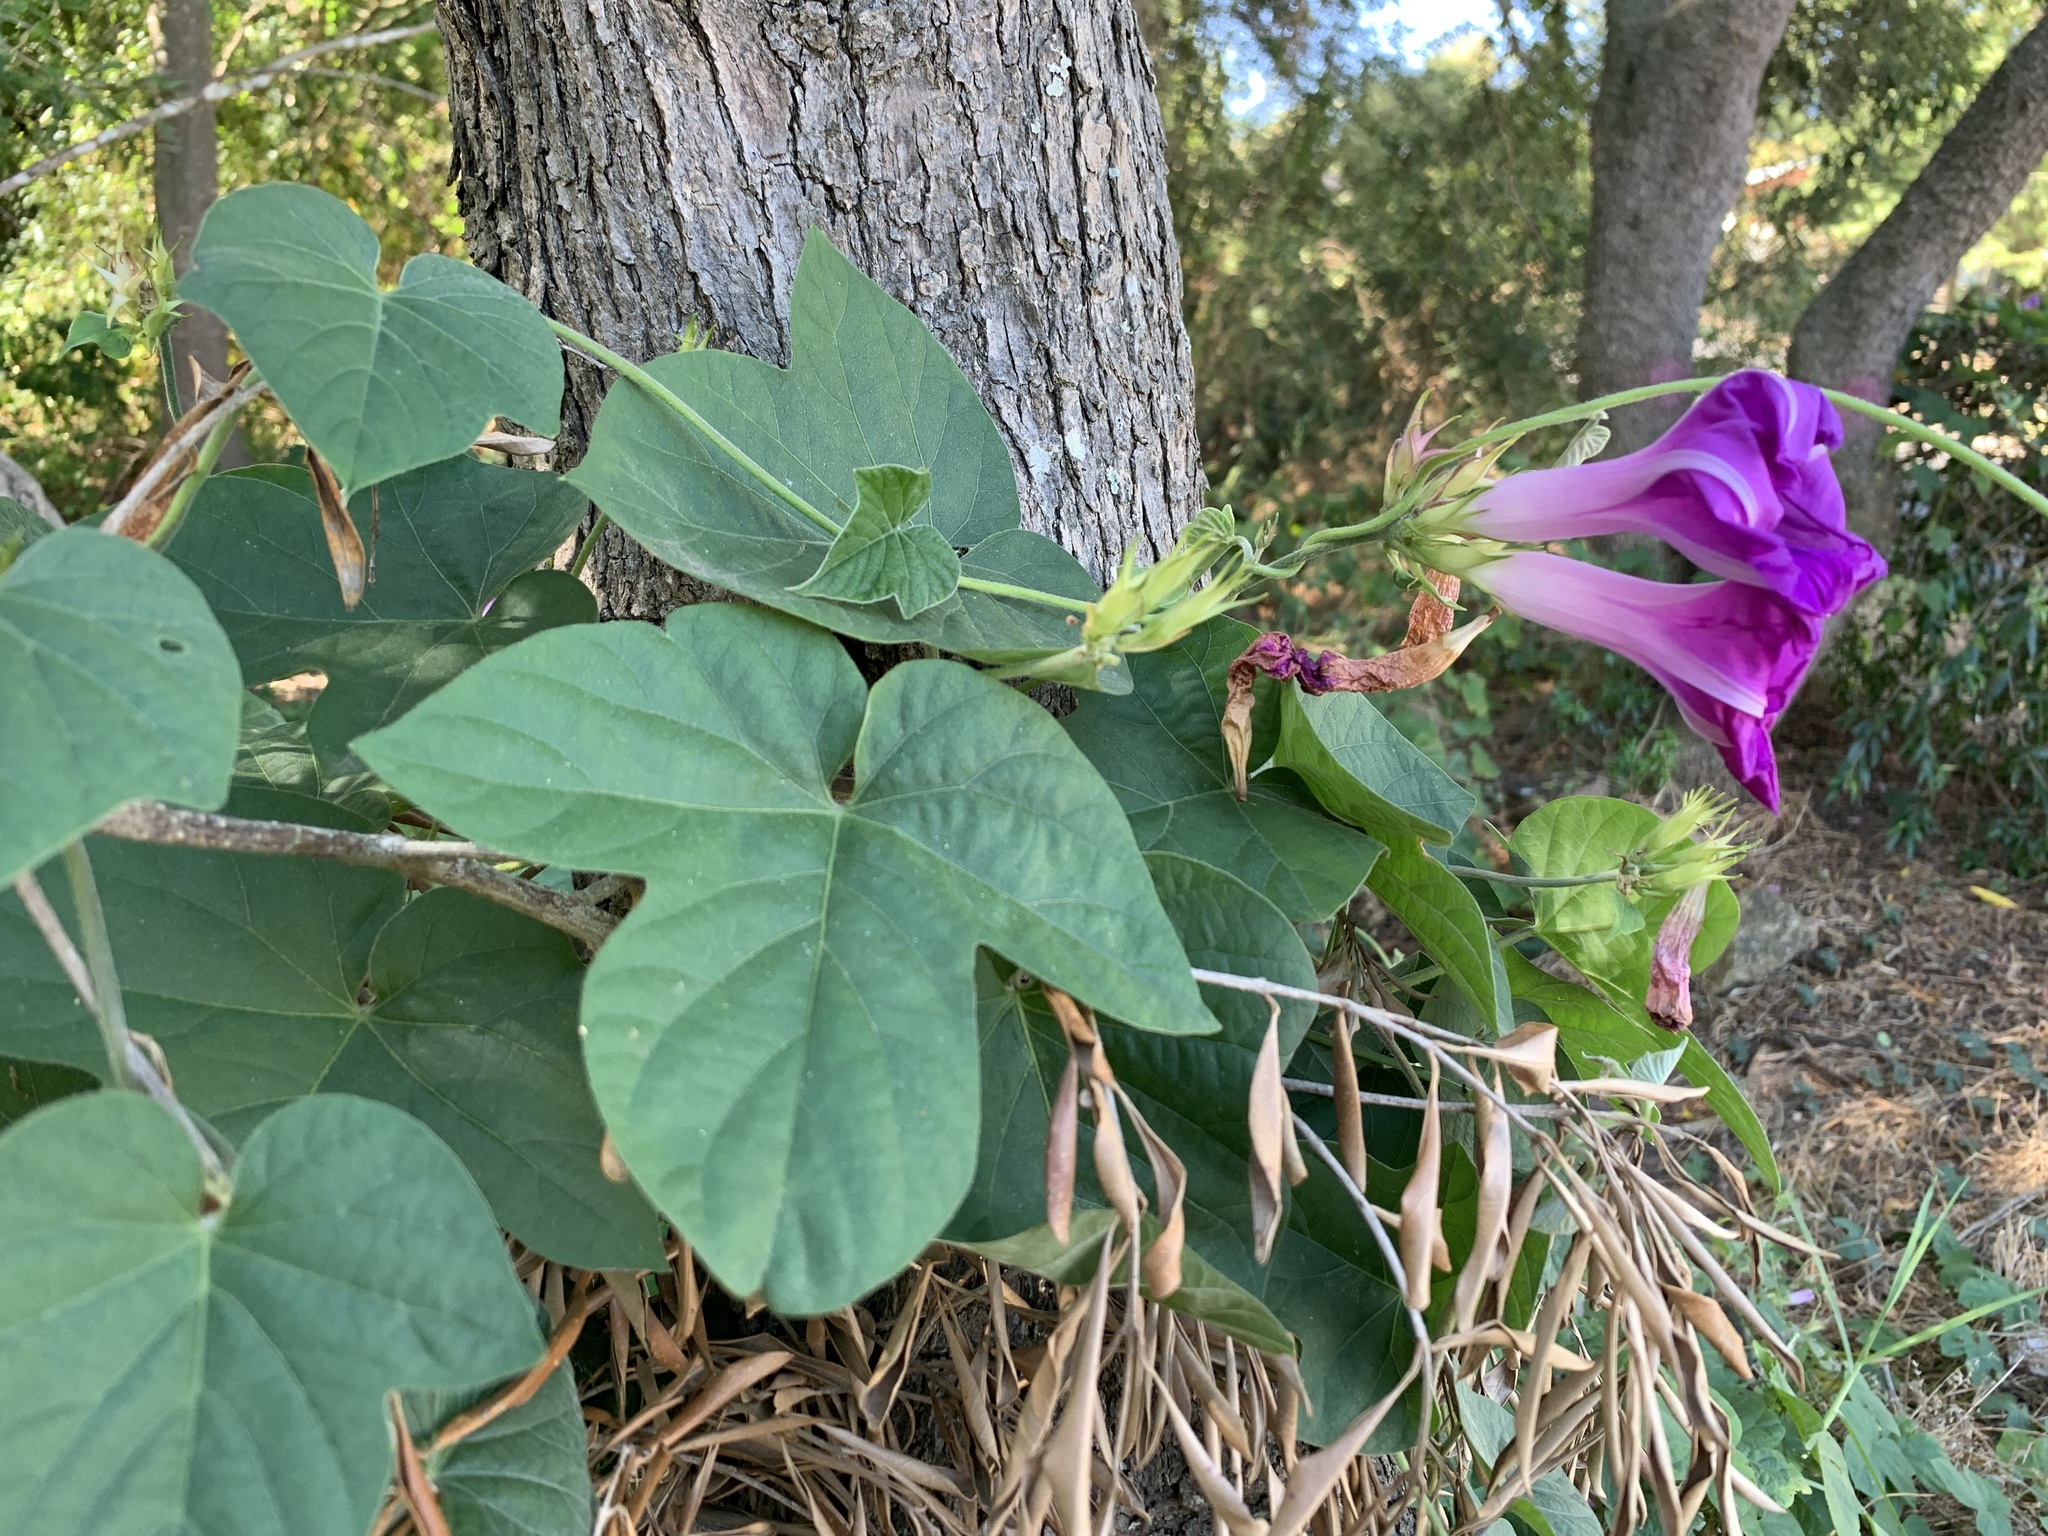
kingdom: Plantae
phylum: Tracheophyta
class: Magnoliopsida
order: Solanales
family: Convolvulaceae
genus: Ipomoea
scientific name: Ipomoea indica
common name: Blue dawnflower
